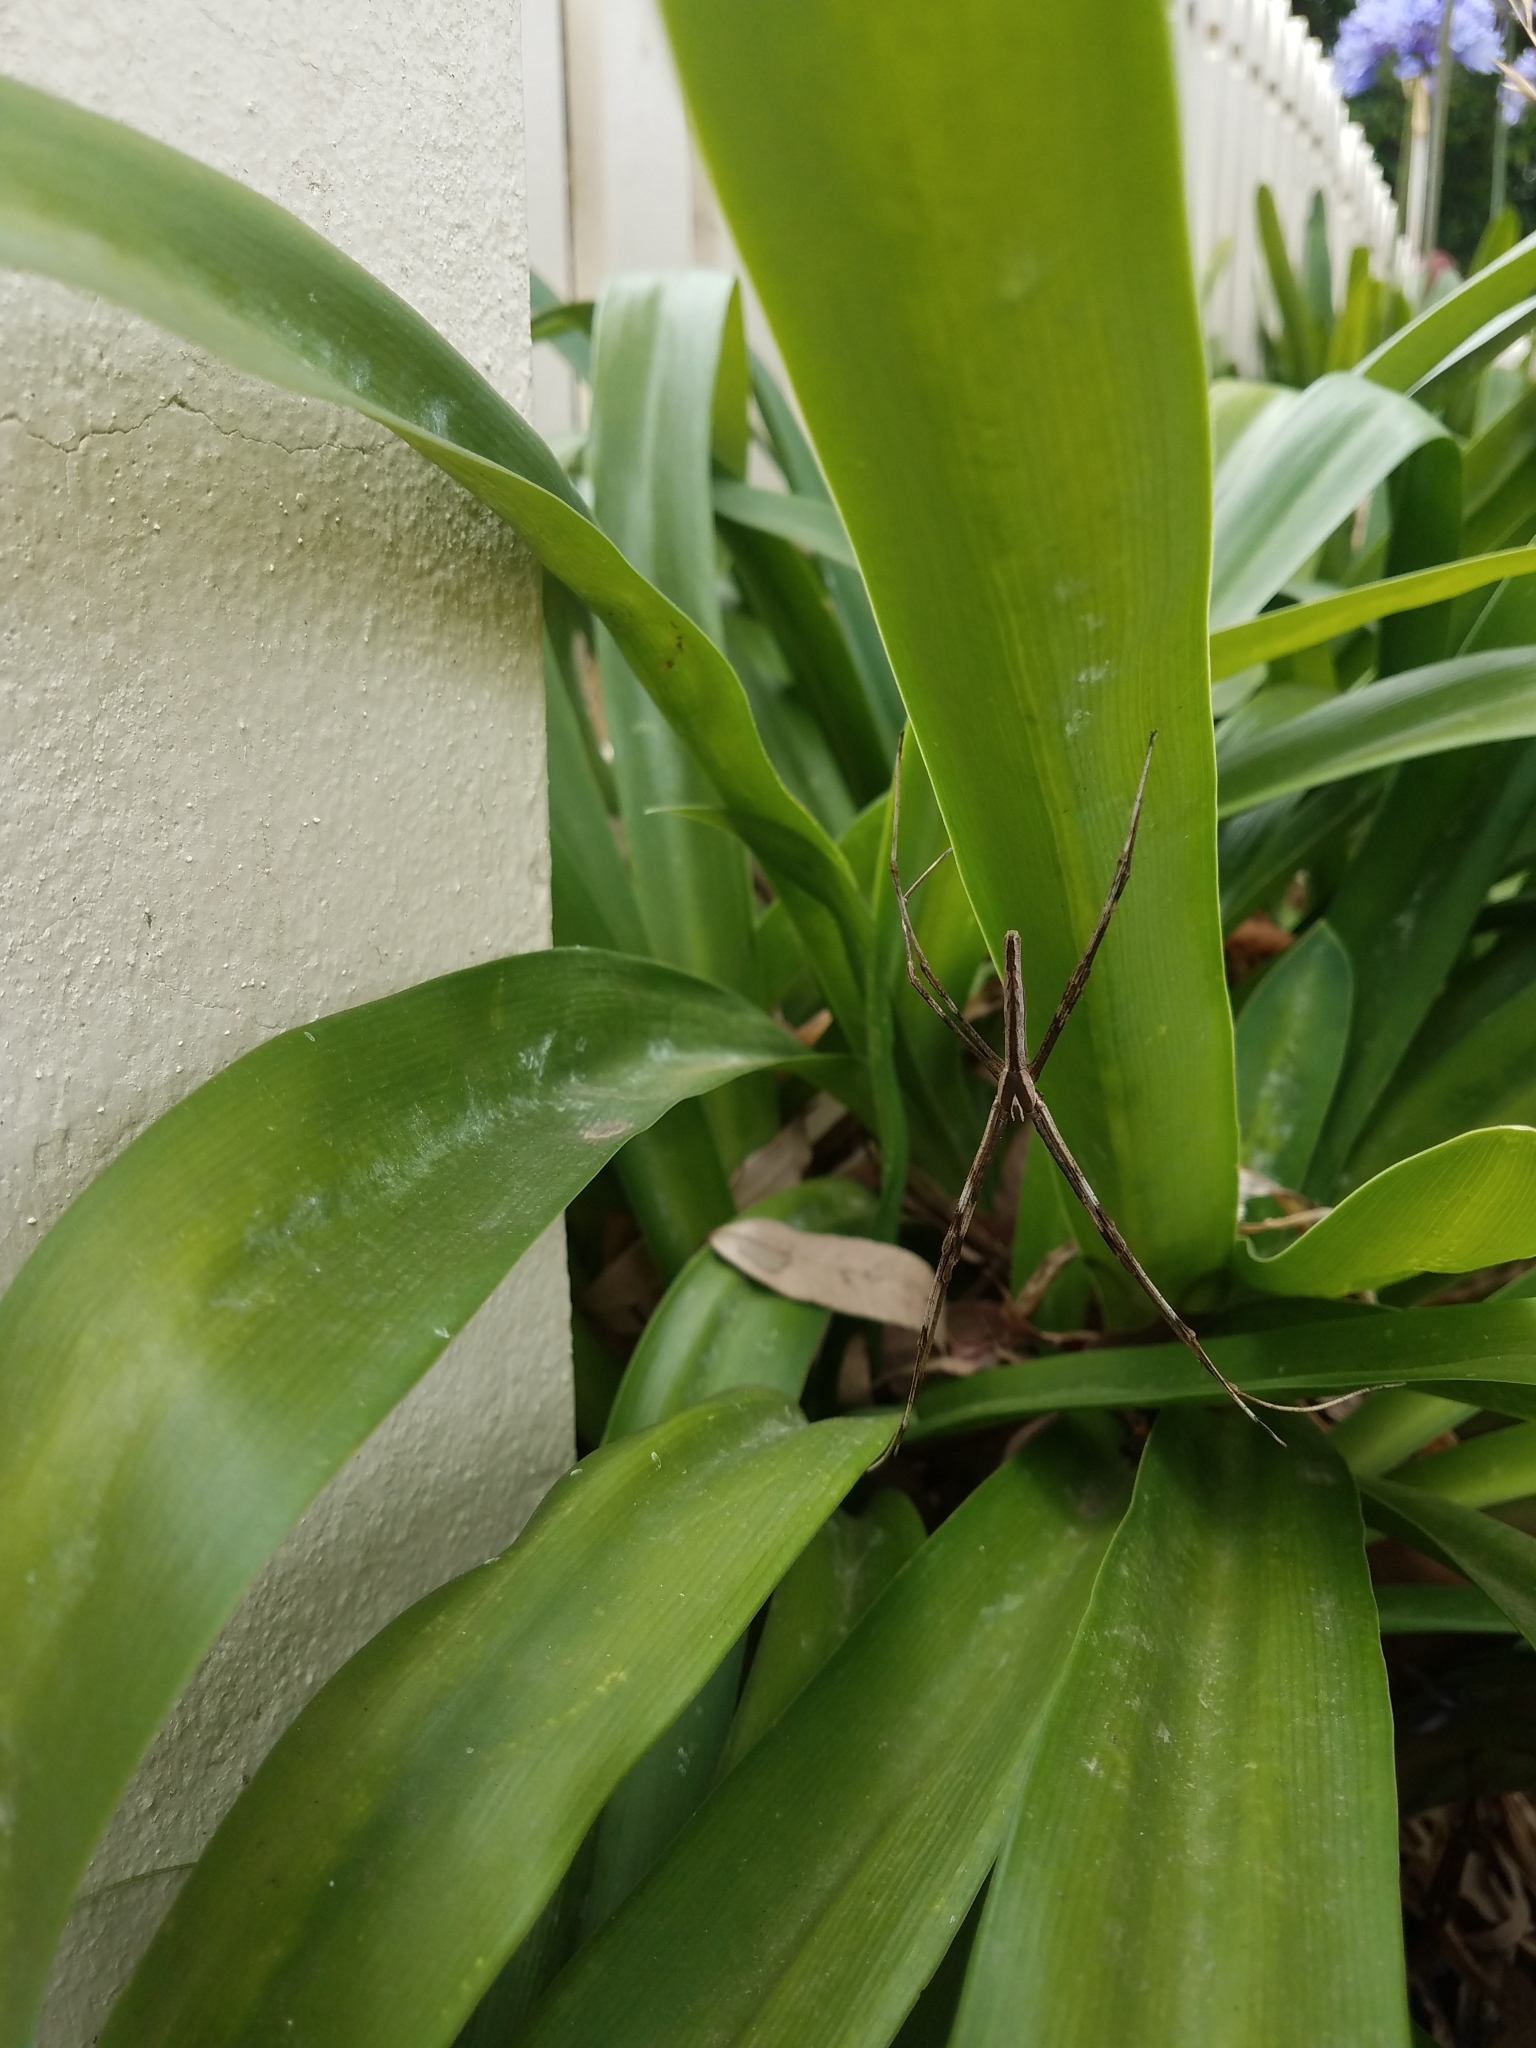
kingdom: Animalia
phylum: Arthropoda
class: Arachnida
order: Araneae
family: Deinopidae
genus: Deinopis
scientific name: Deinopis subrufa
